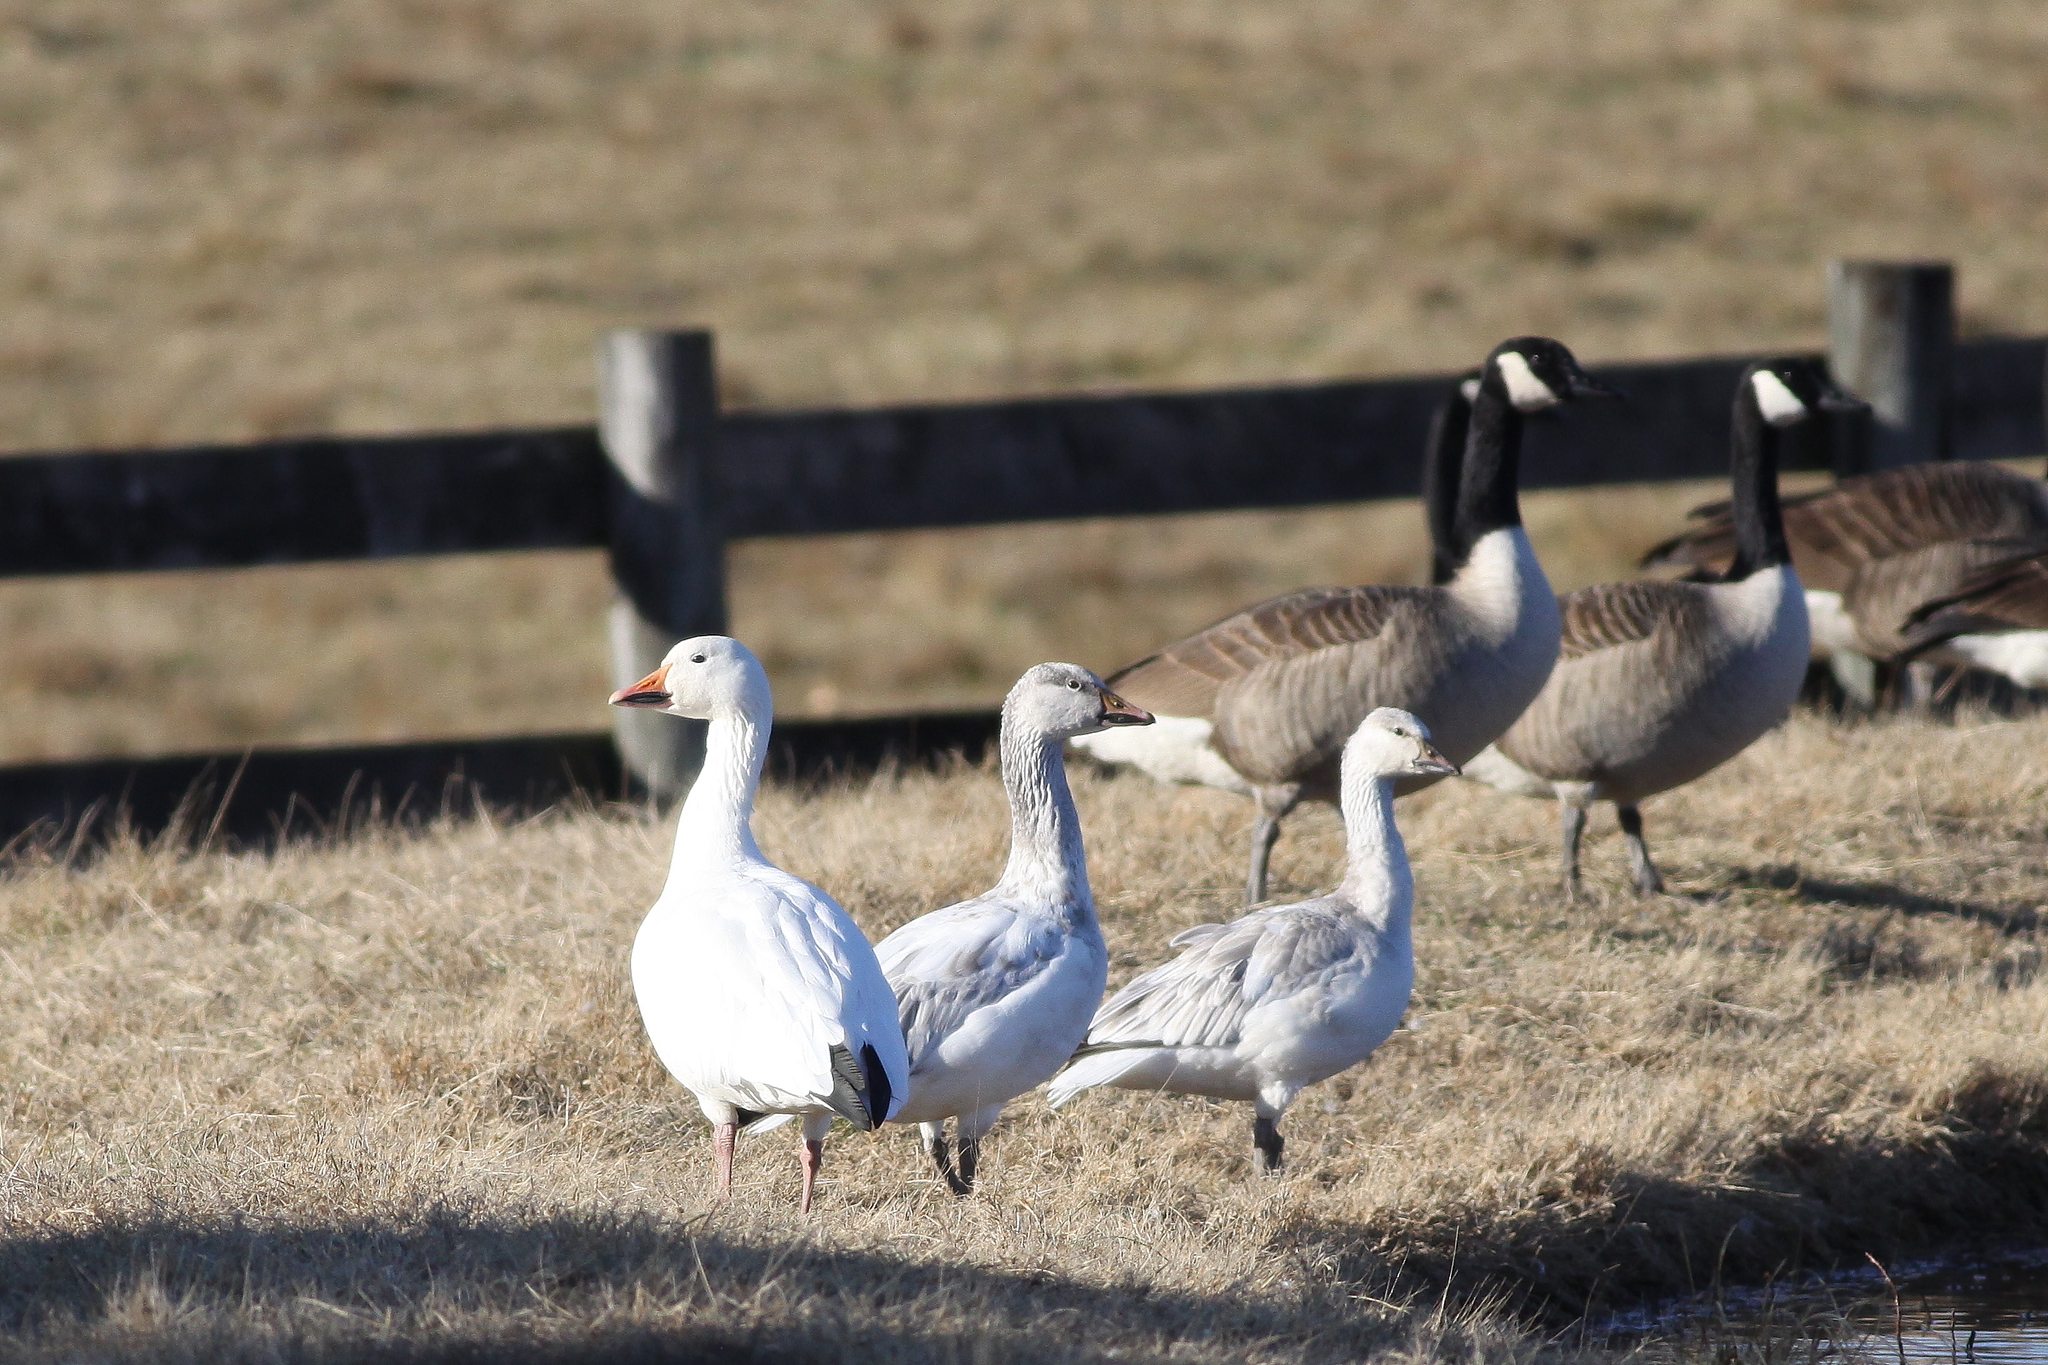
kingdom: Animalia
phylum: Chordata
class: Aves
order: Anseriformes
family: Anatidae
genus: Branta
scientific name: Branta canadensis
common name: Canada goose
